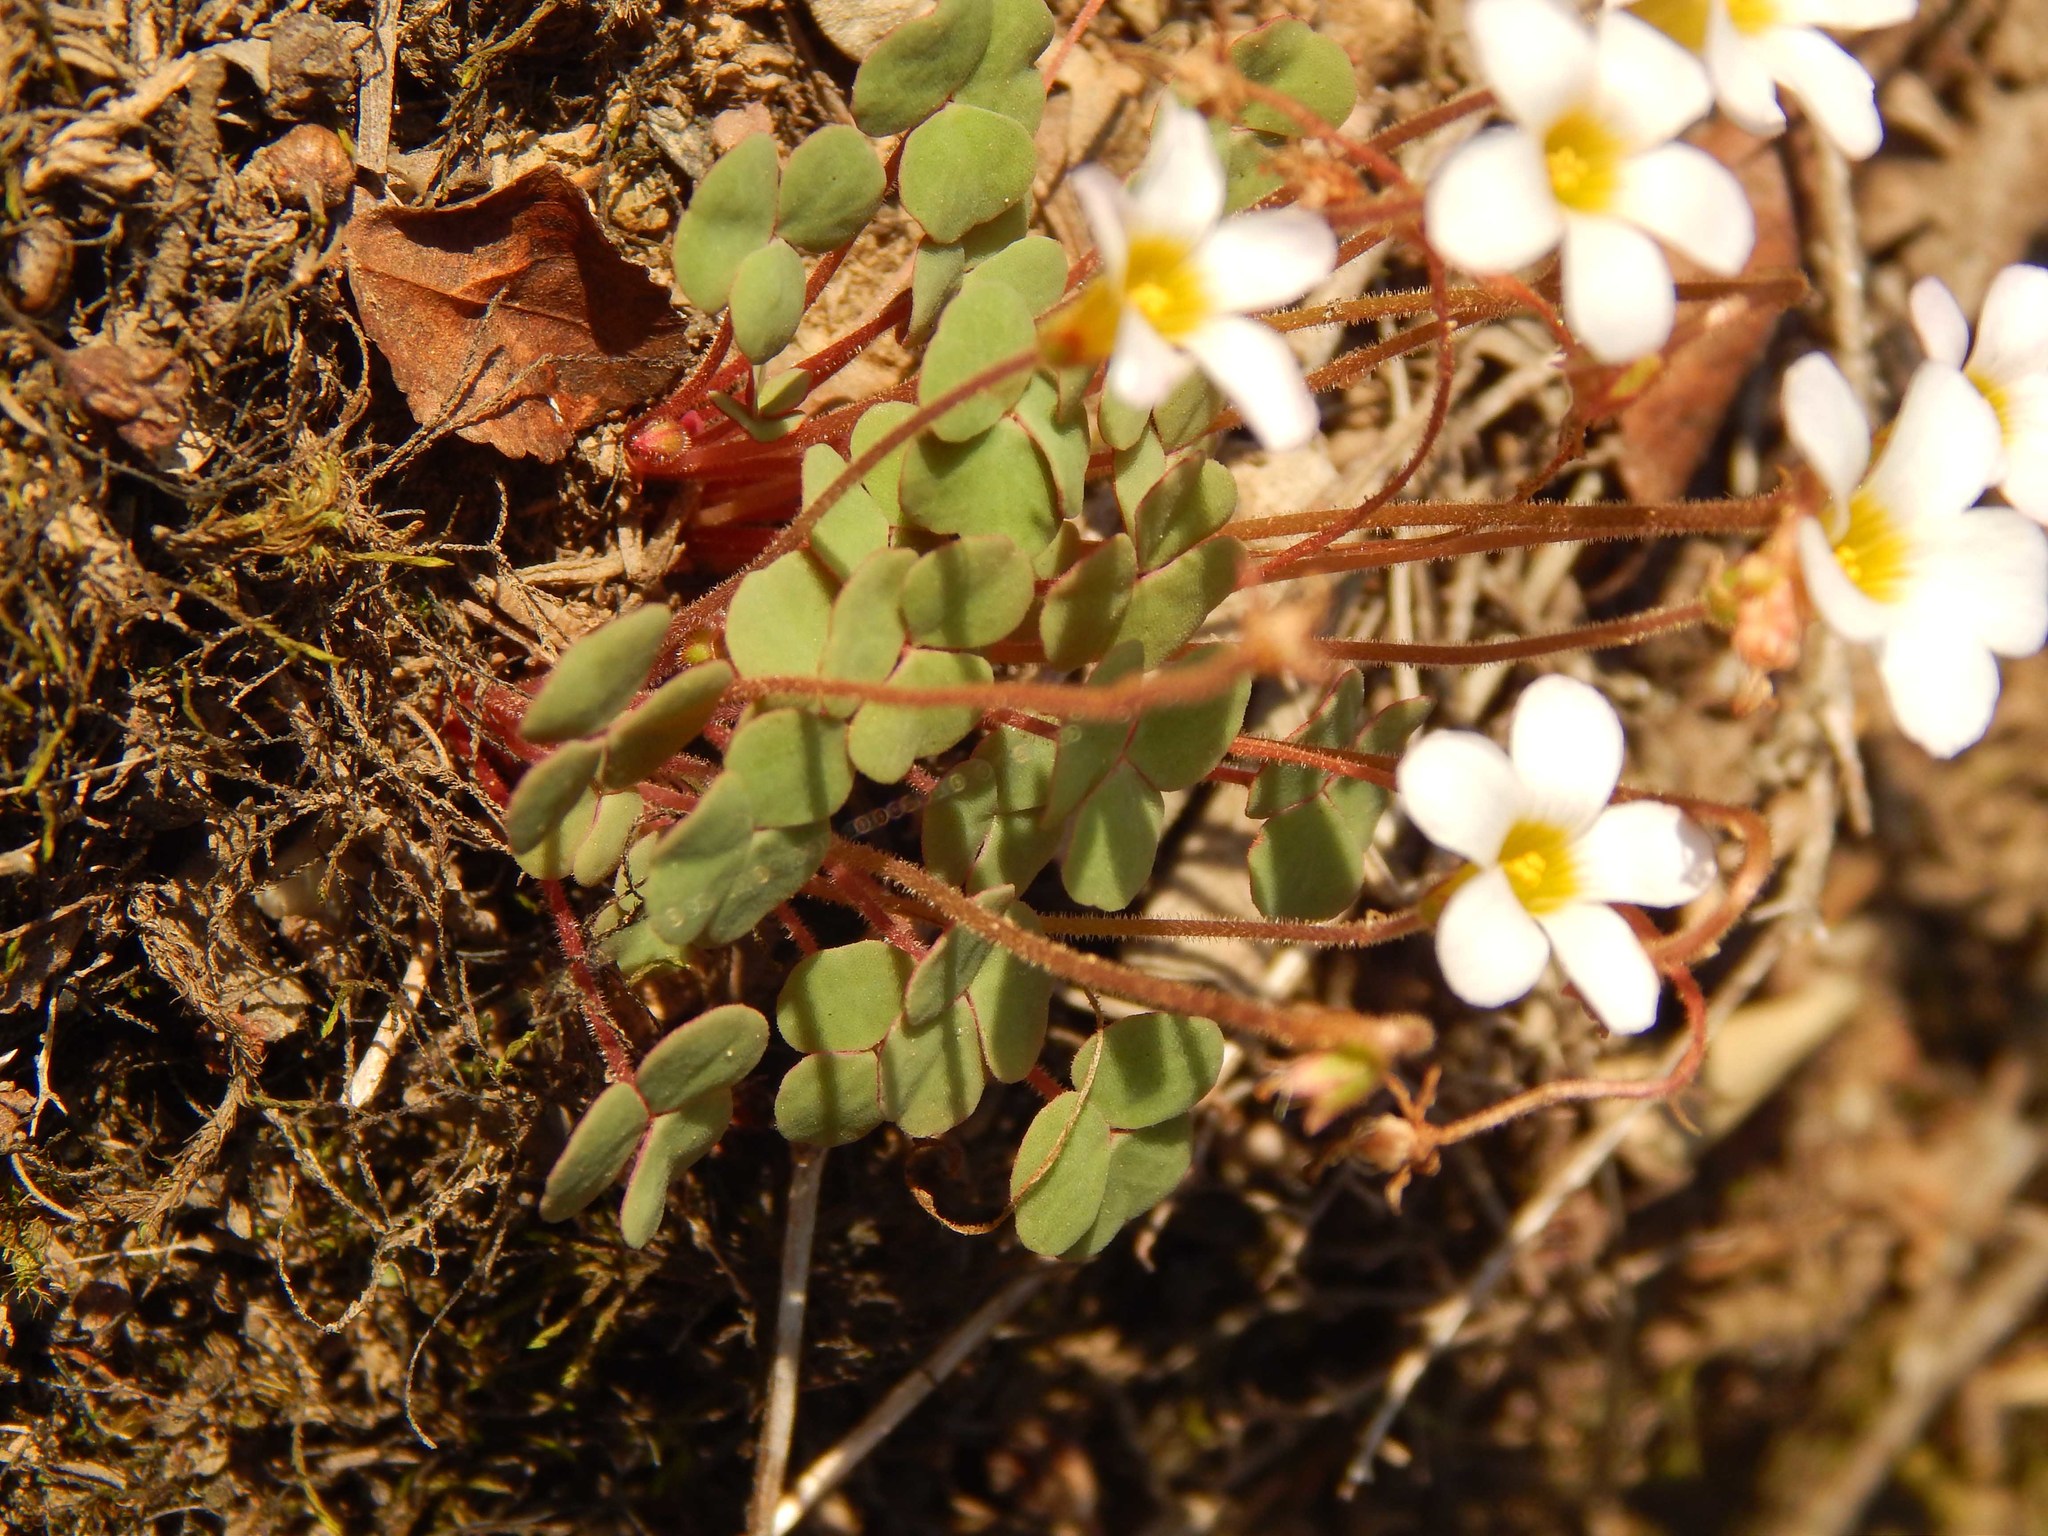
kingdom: Plantae
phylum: Tracheophyta
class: Magnoliopsida
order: Oxalidales
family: Oxalidaceae
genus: Oxalis
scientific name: Oxalis punctata
